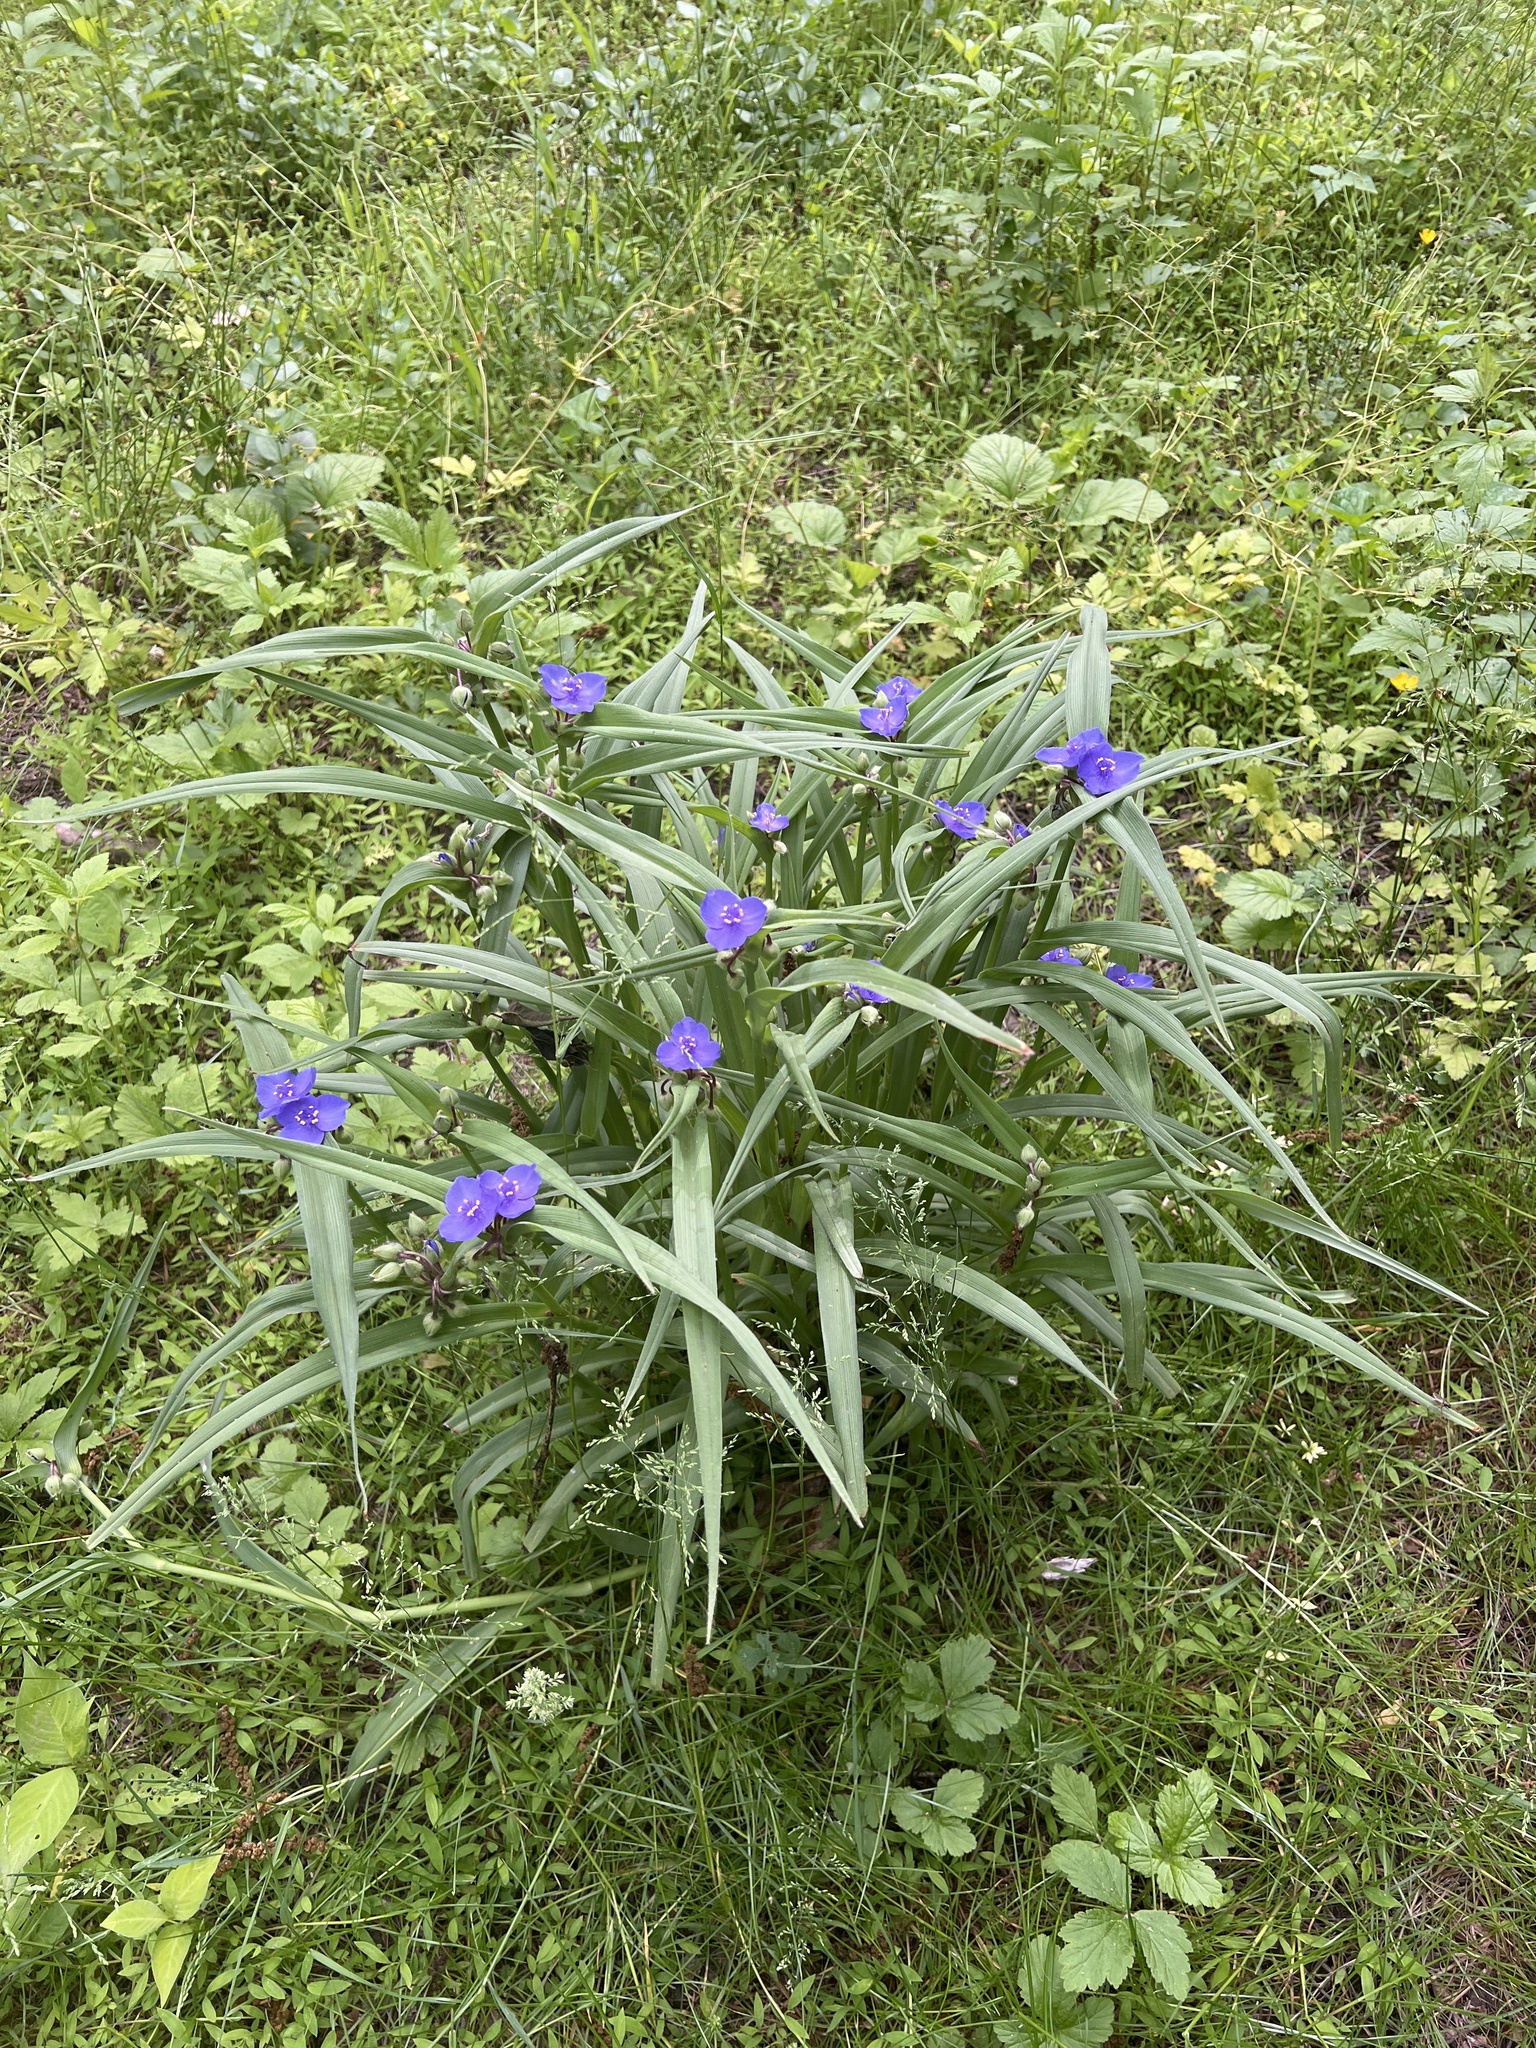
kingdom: Plantae
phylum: Tracheophyta
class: Liliopsida
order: Commelinales
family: Commelinaceae
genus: Tradescantia
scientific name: Tradescantia virginiana
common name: Spiderwort
